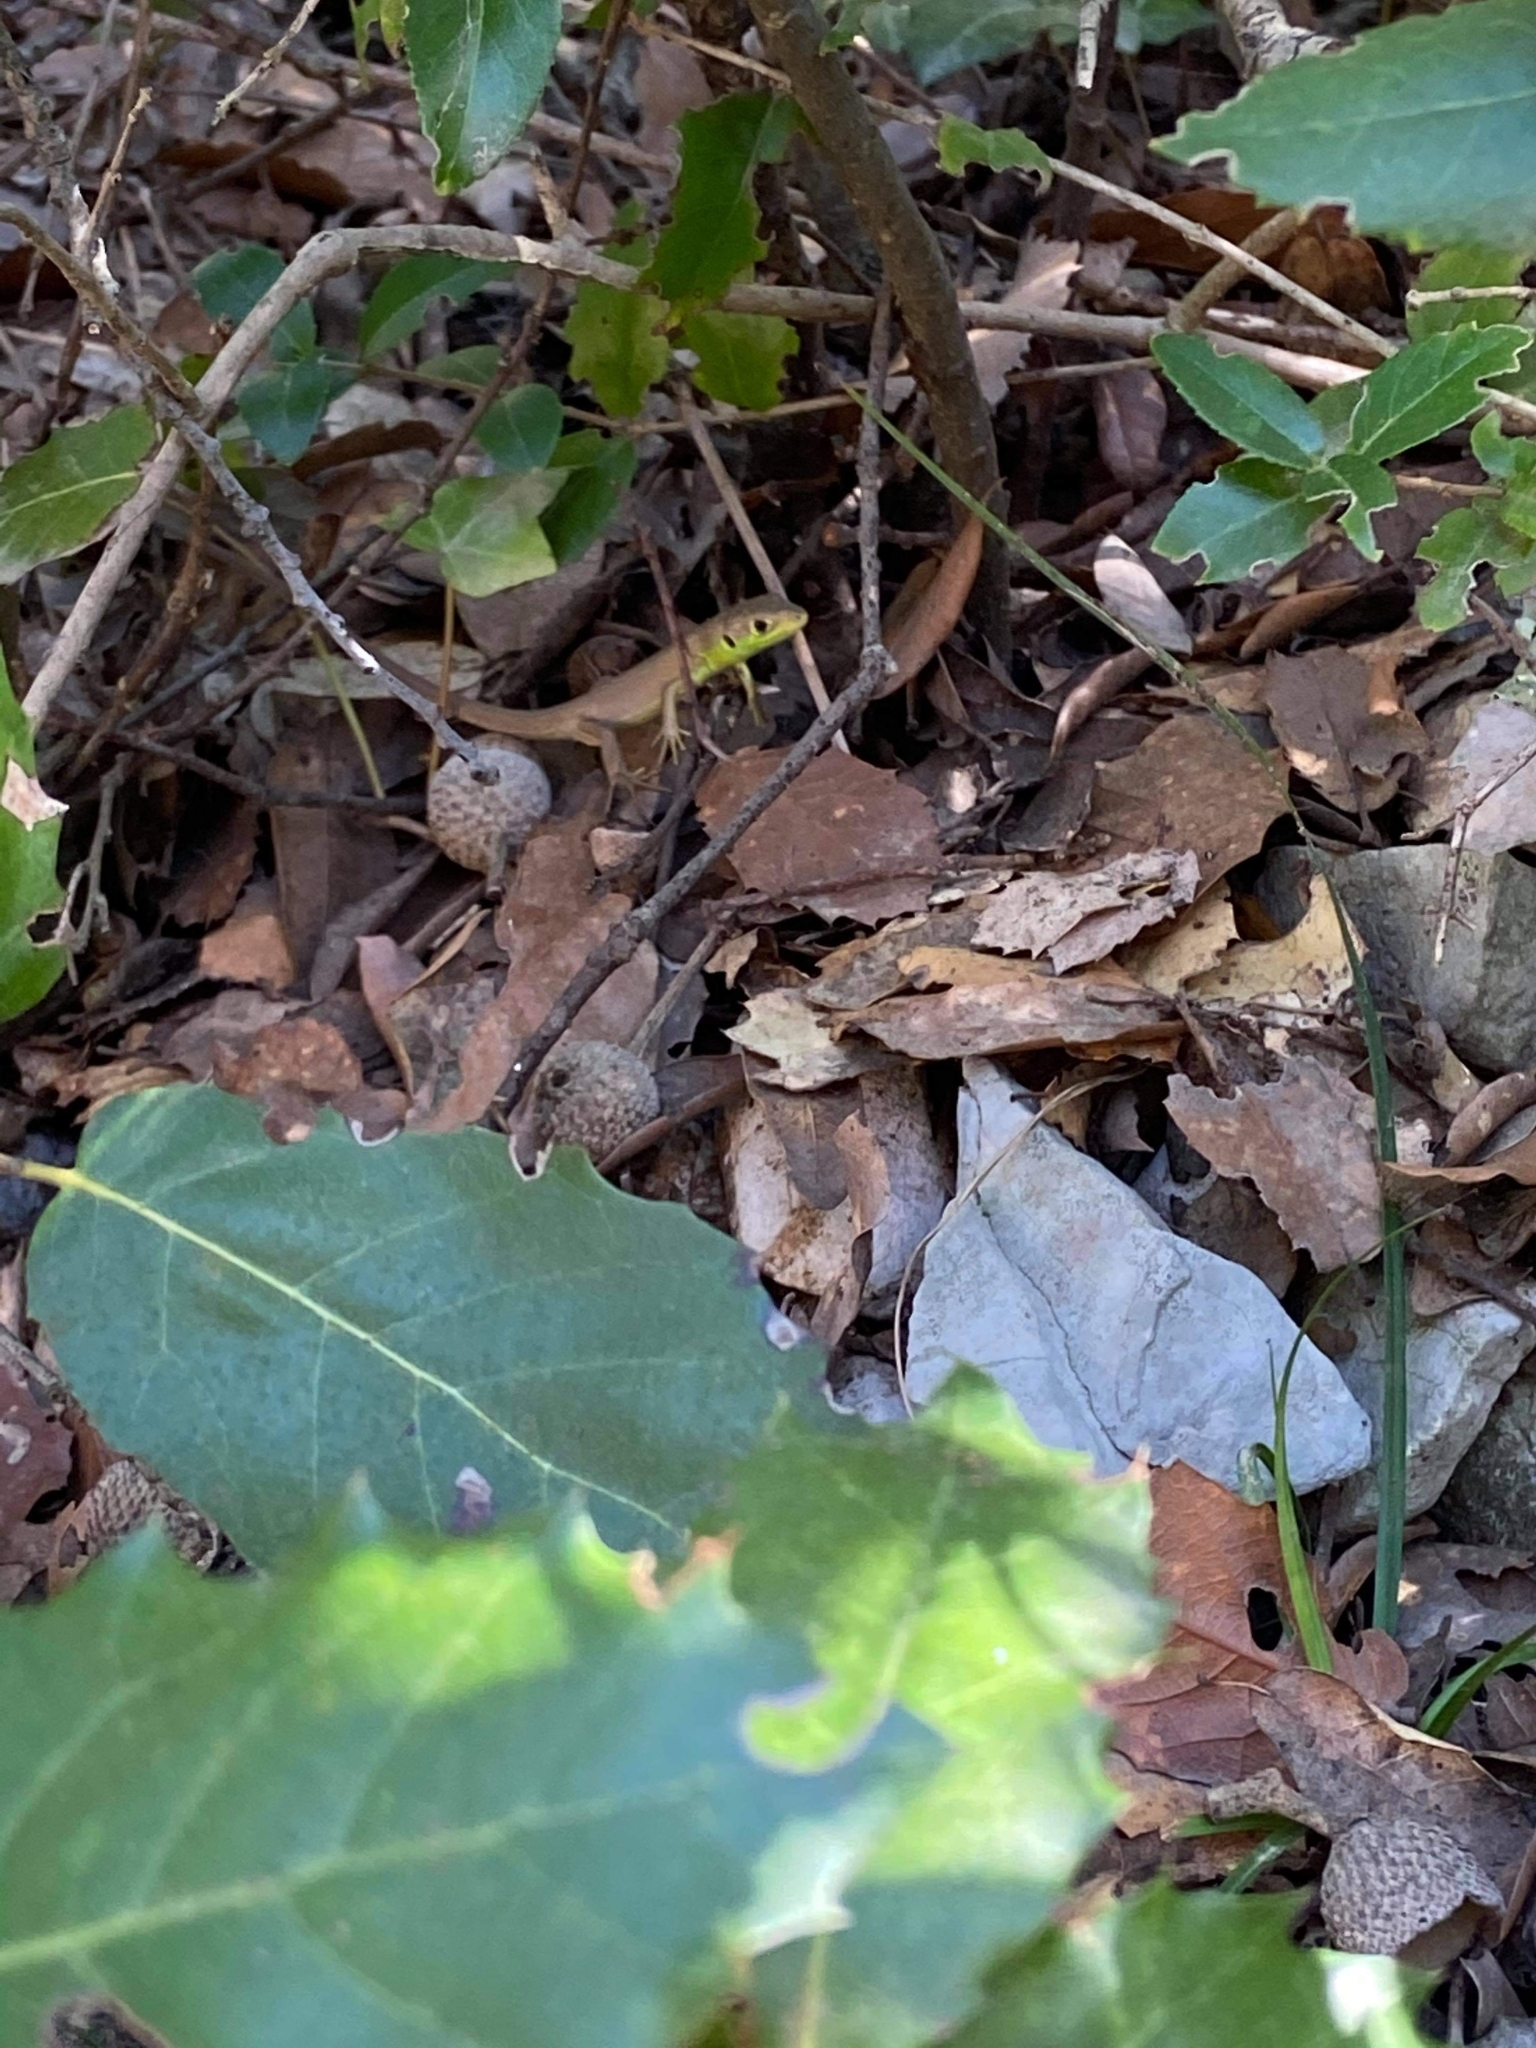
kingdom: Animalia
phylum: Chordata
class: Squamata
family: Lacertidae
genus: Lacerta
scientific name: Lacerta bilineata
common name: Western green lizard
